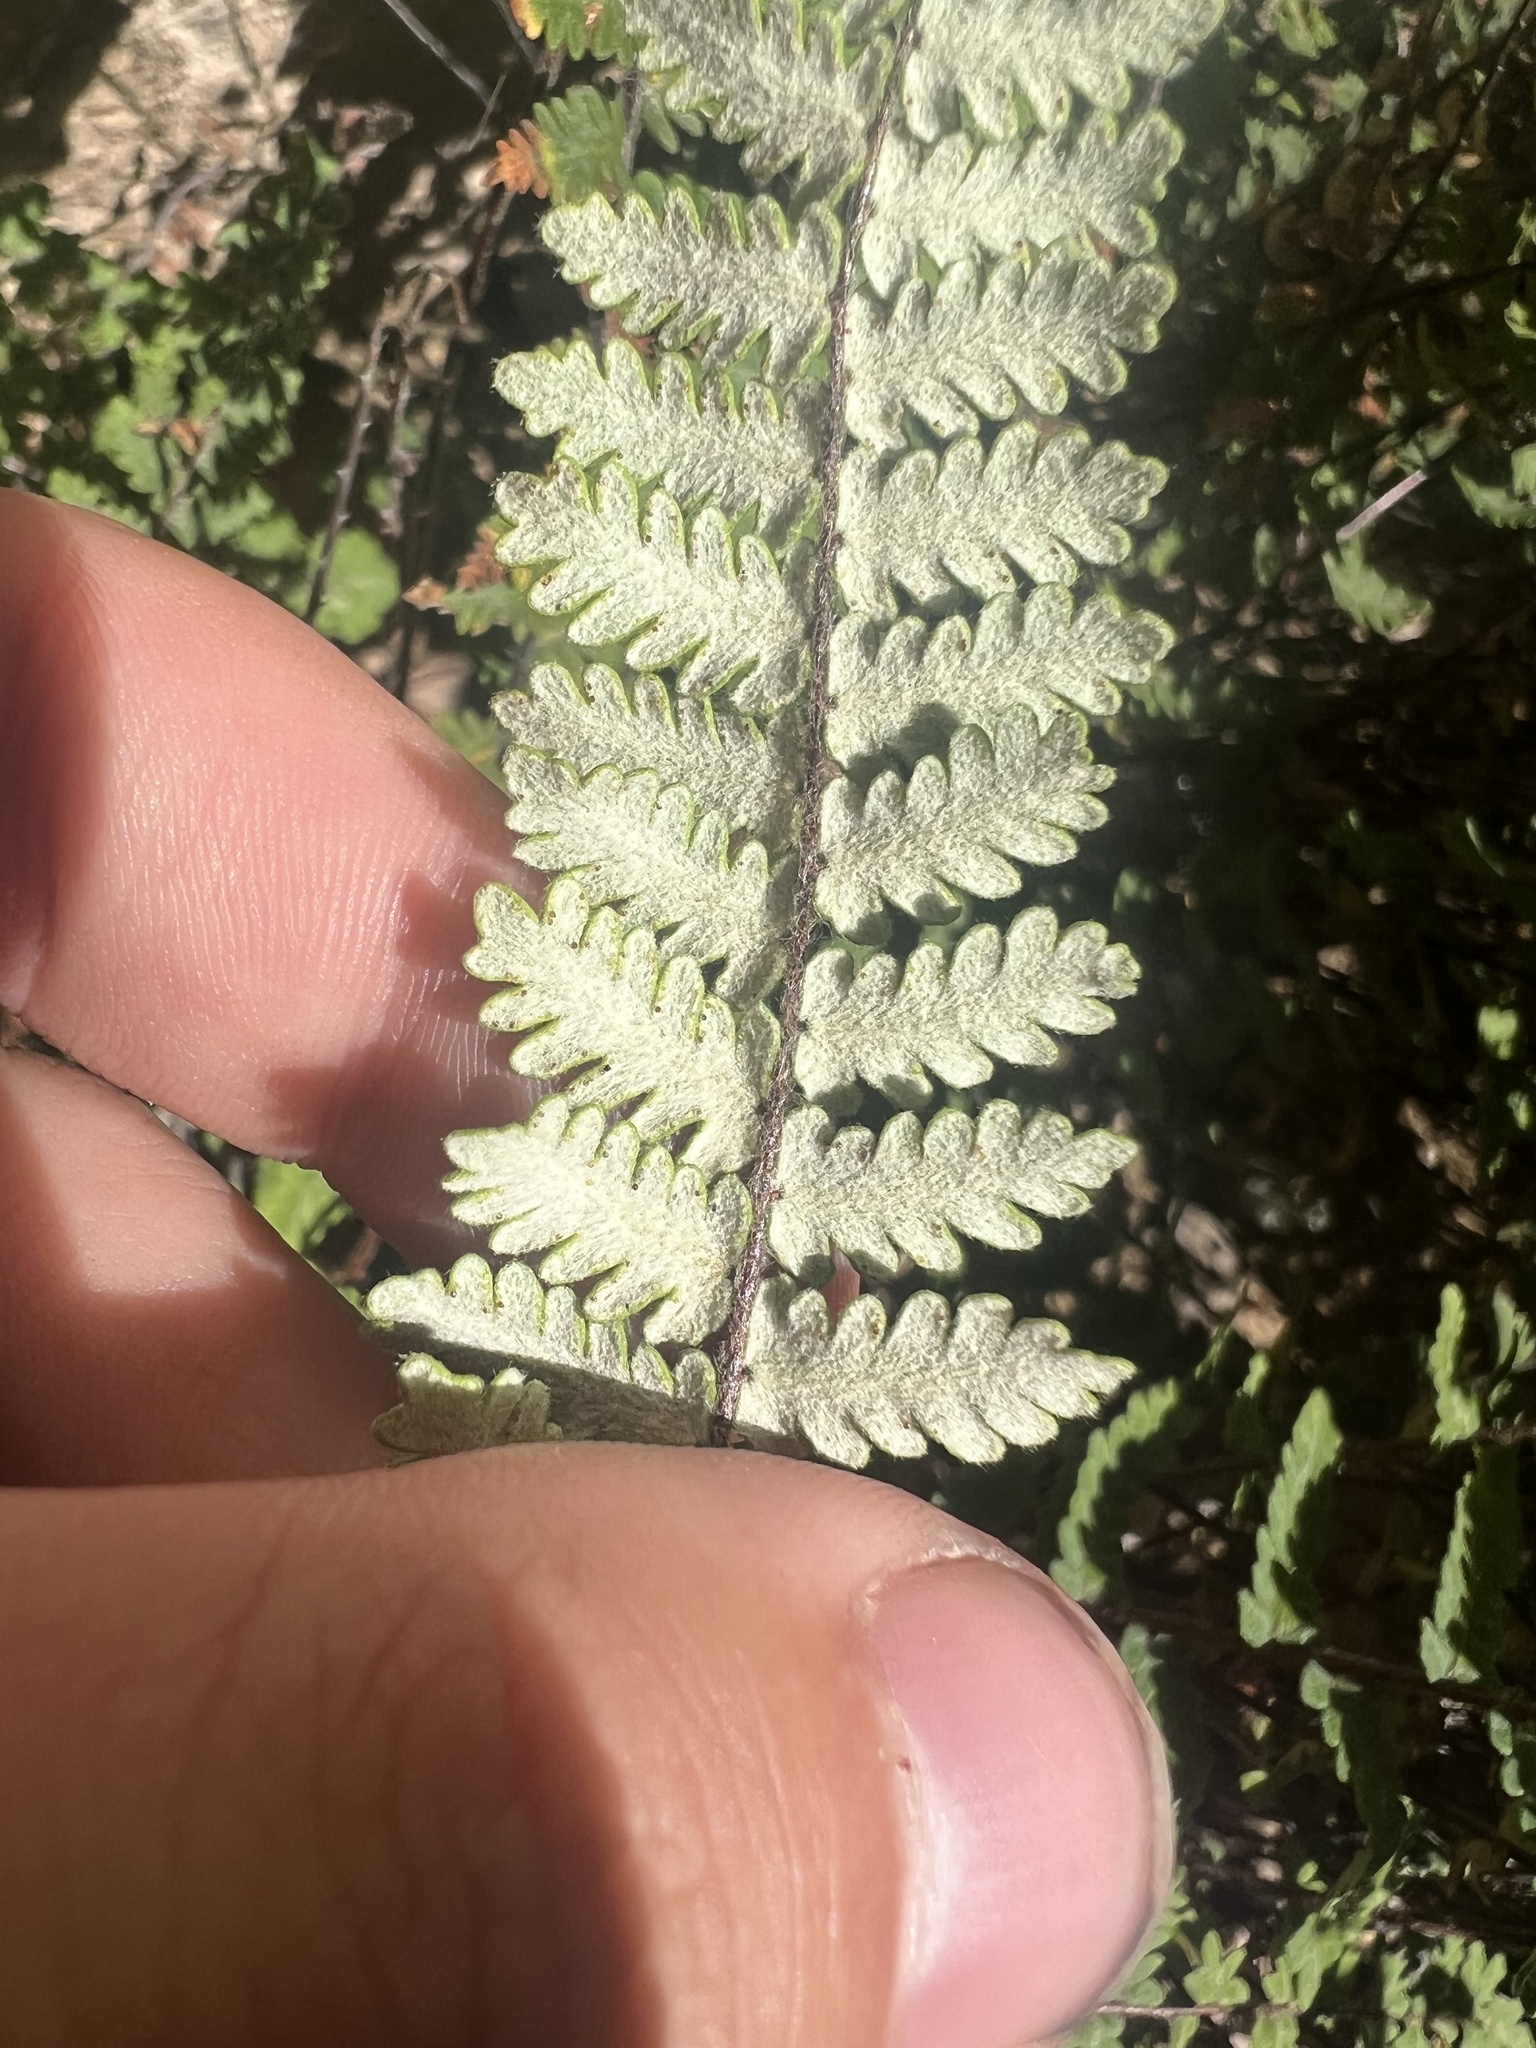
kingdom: Plantae
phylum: Tracheophyta
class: Polypodiopsida
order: Polypodiales
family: Pteridaceae
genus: Myriopteris
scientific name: Myriopteris aurea
